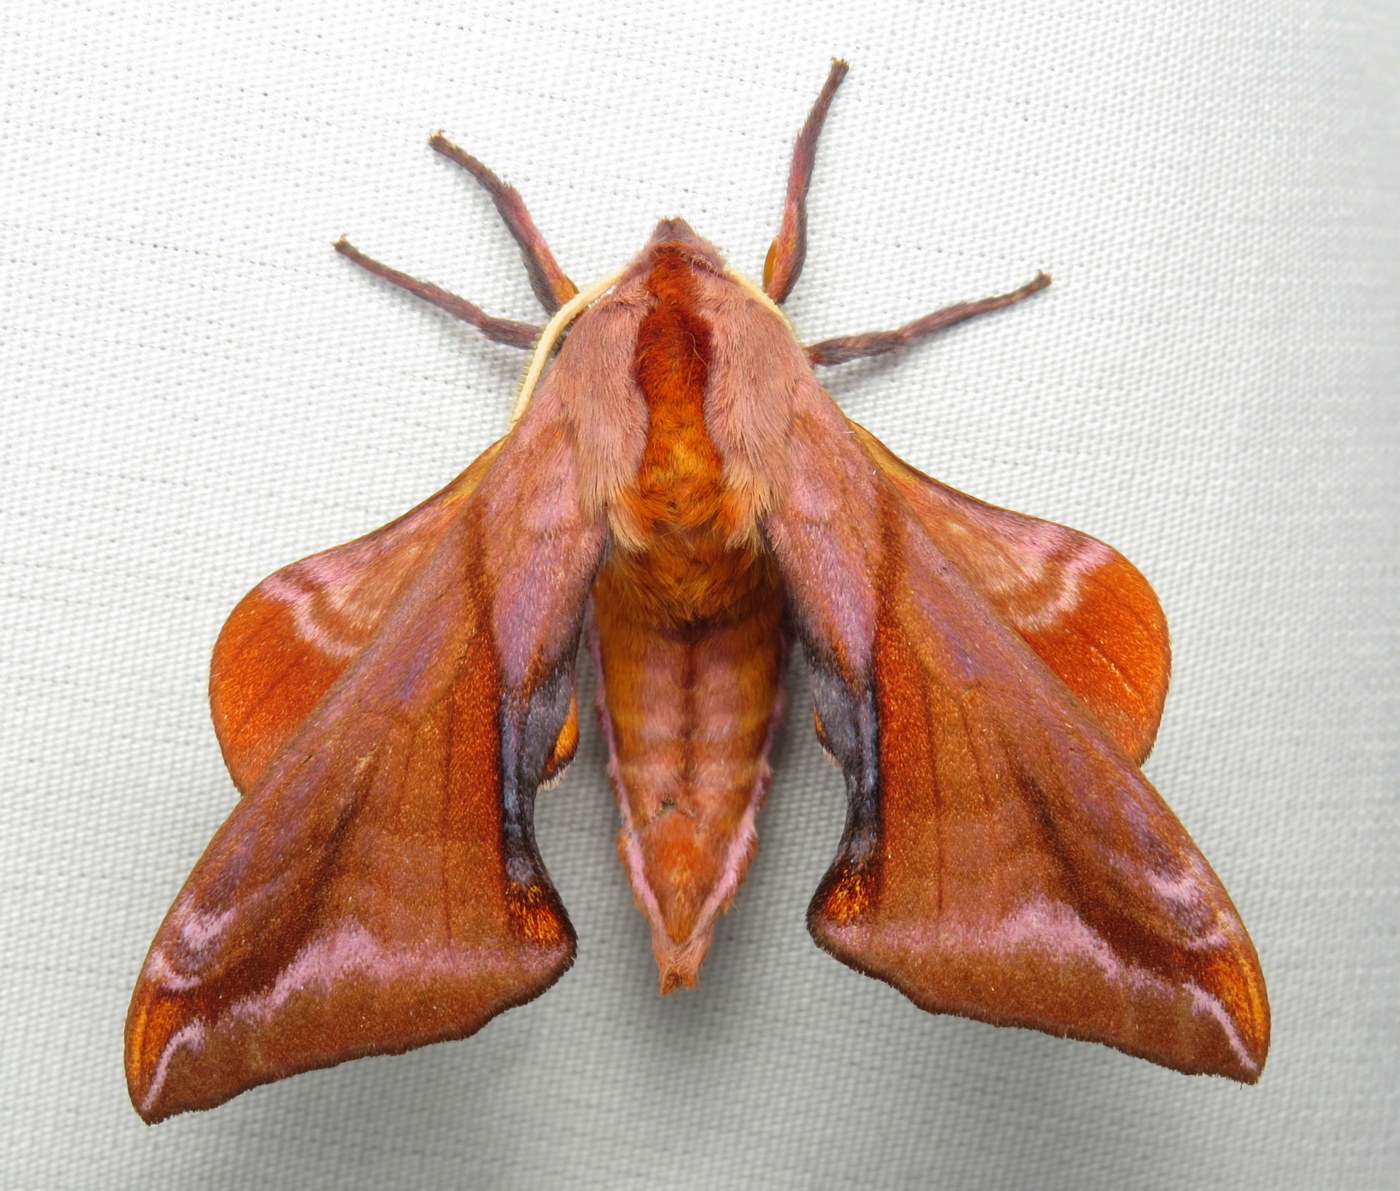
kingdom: Animalia
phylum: Arthropoda
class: Insecta
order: Lepidoptera
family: Sphingidae
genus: Paonias
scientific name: Paonias astylus
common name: Huckleberry sphinx
